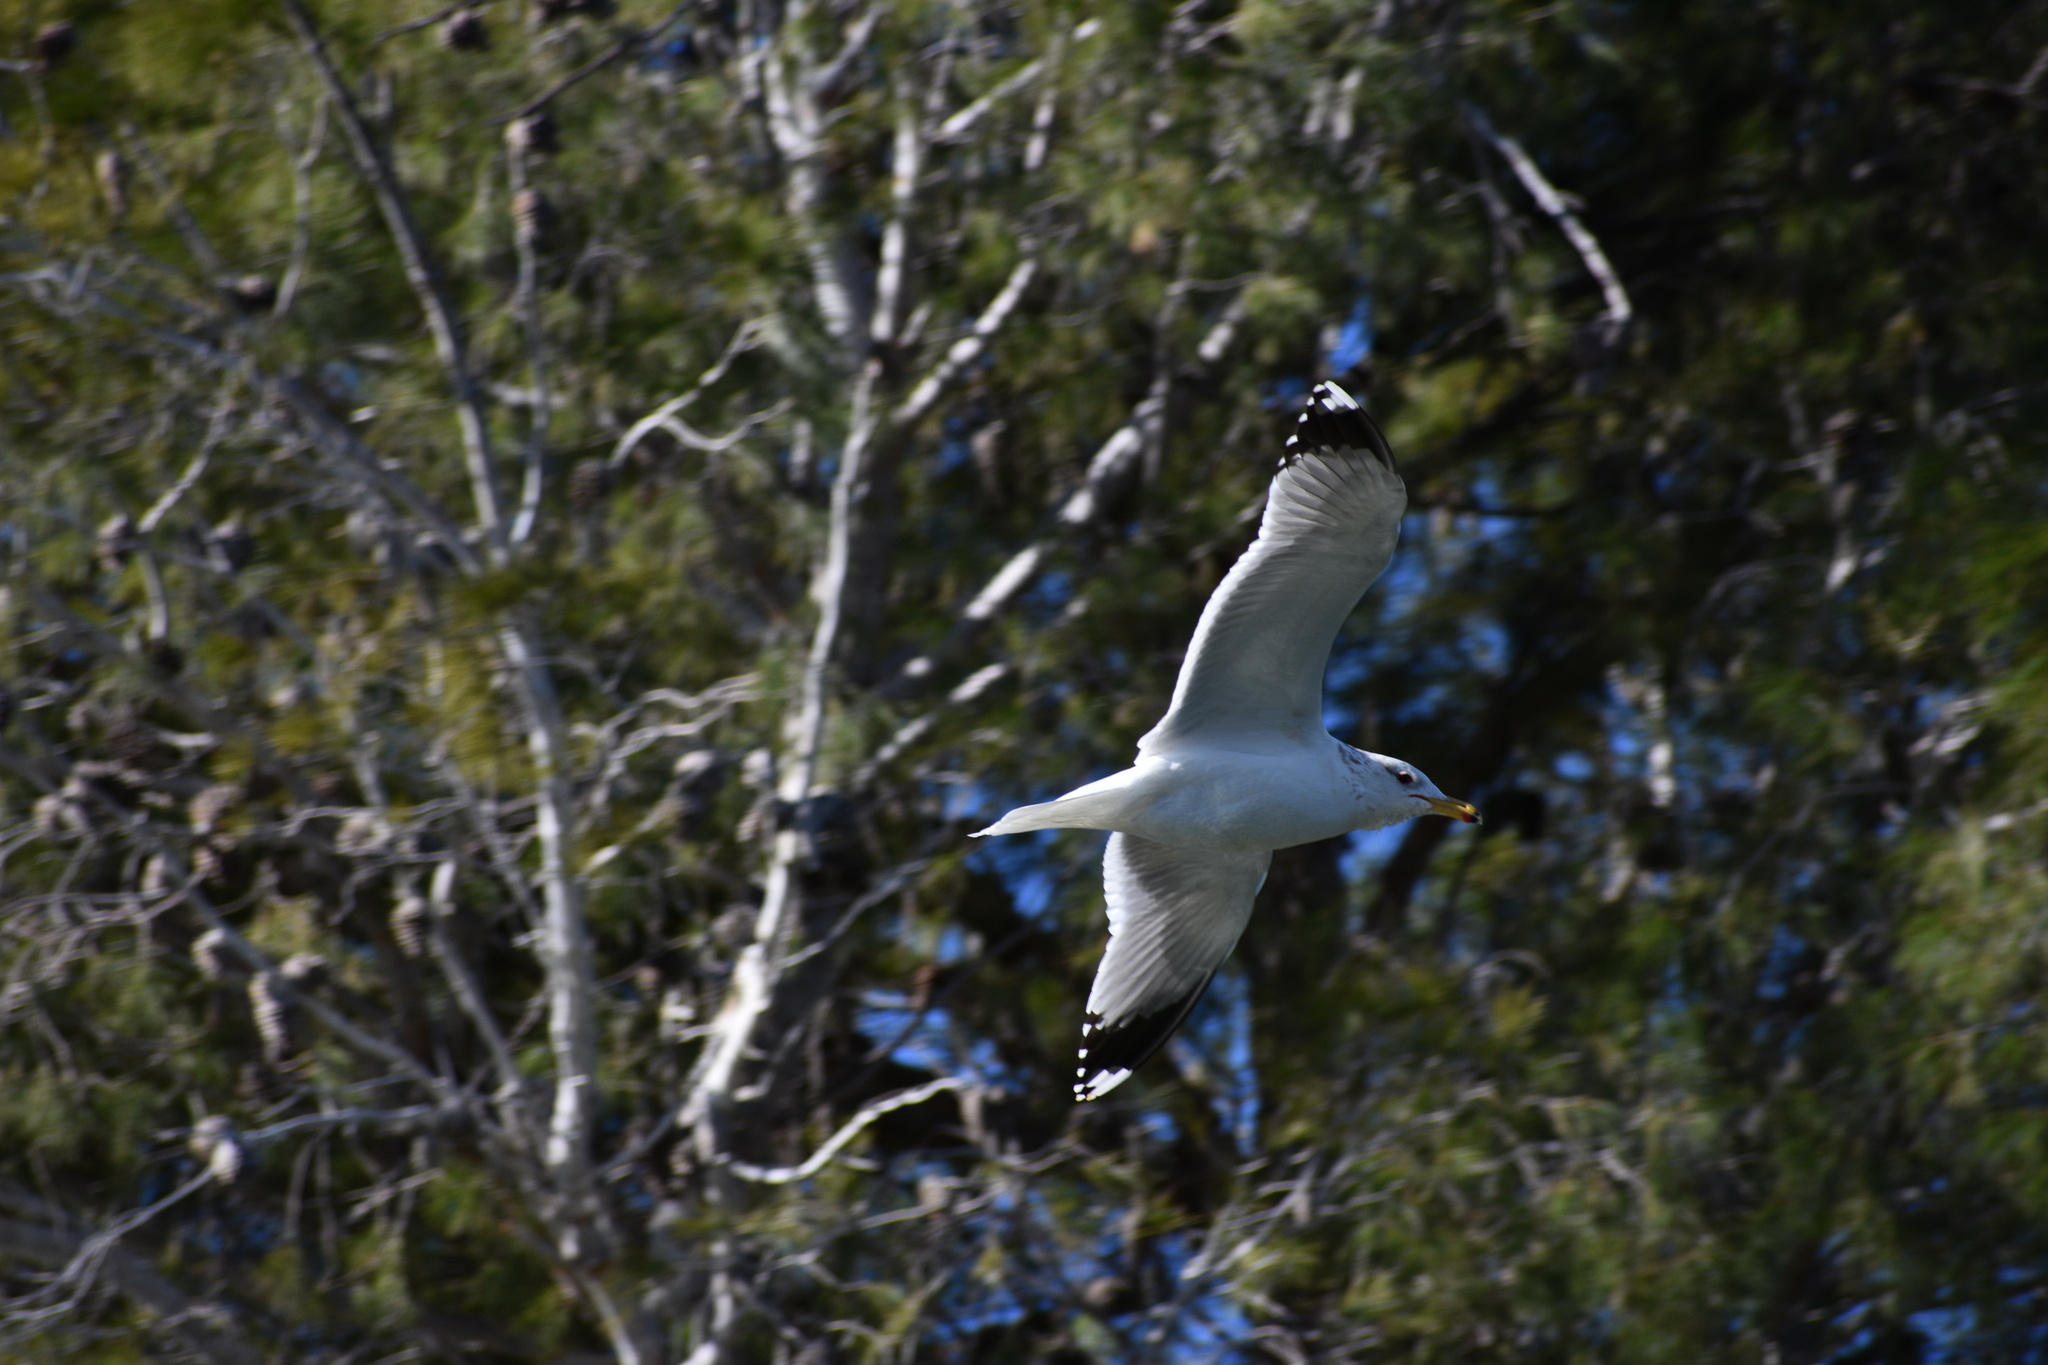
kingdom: Animalia
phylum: Chordata
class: Aves
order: Charadriiformes
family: Laridae
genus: Larus
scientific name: Larus californicus
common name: California gull
